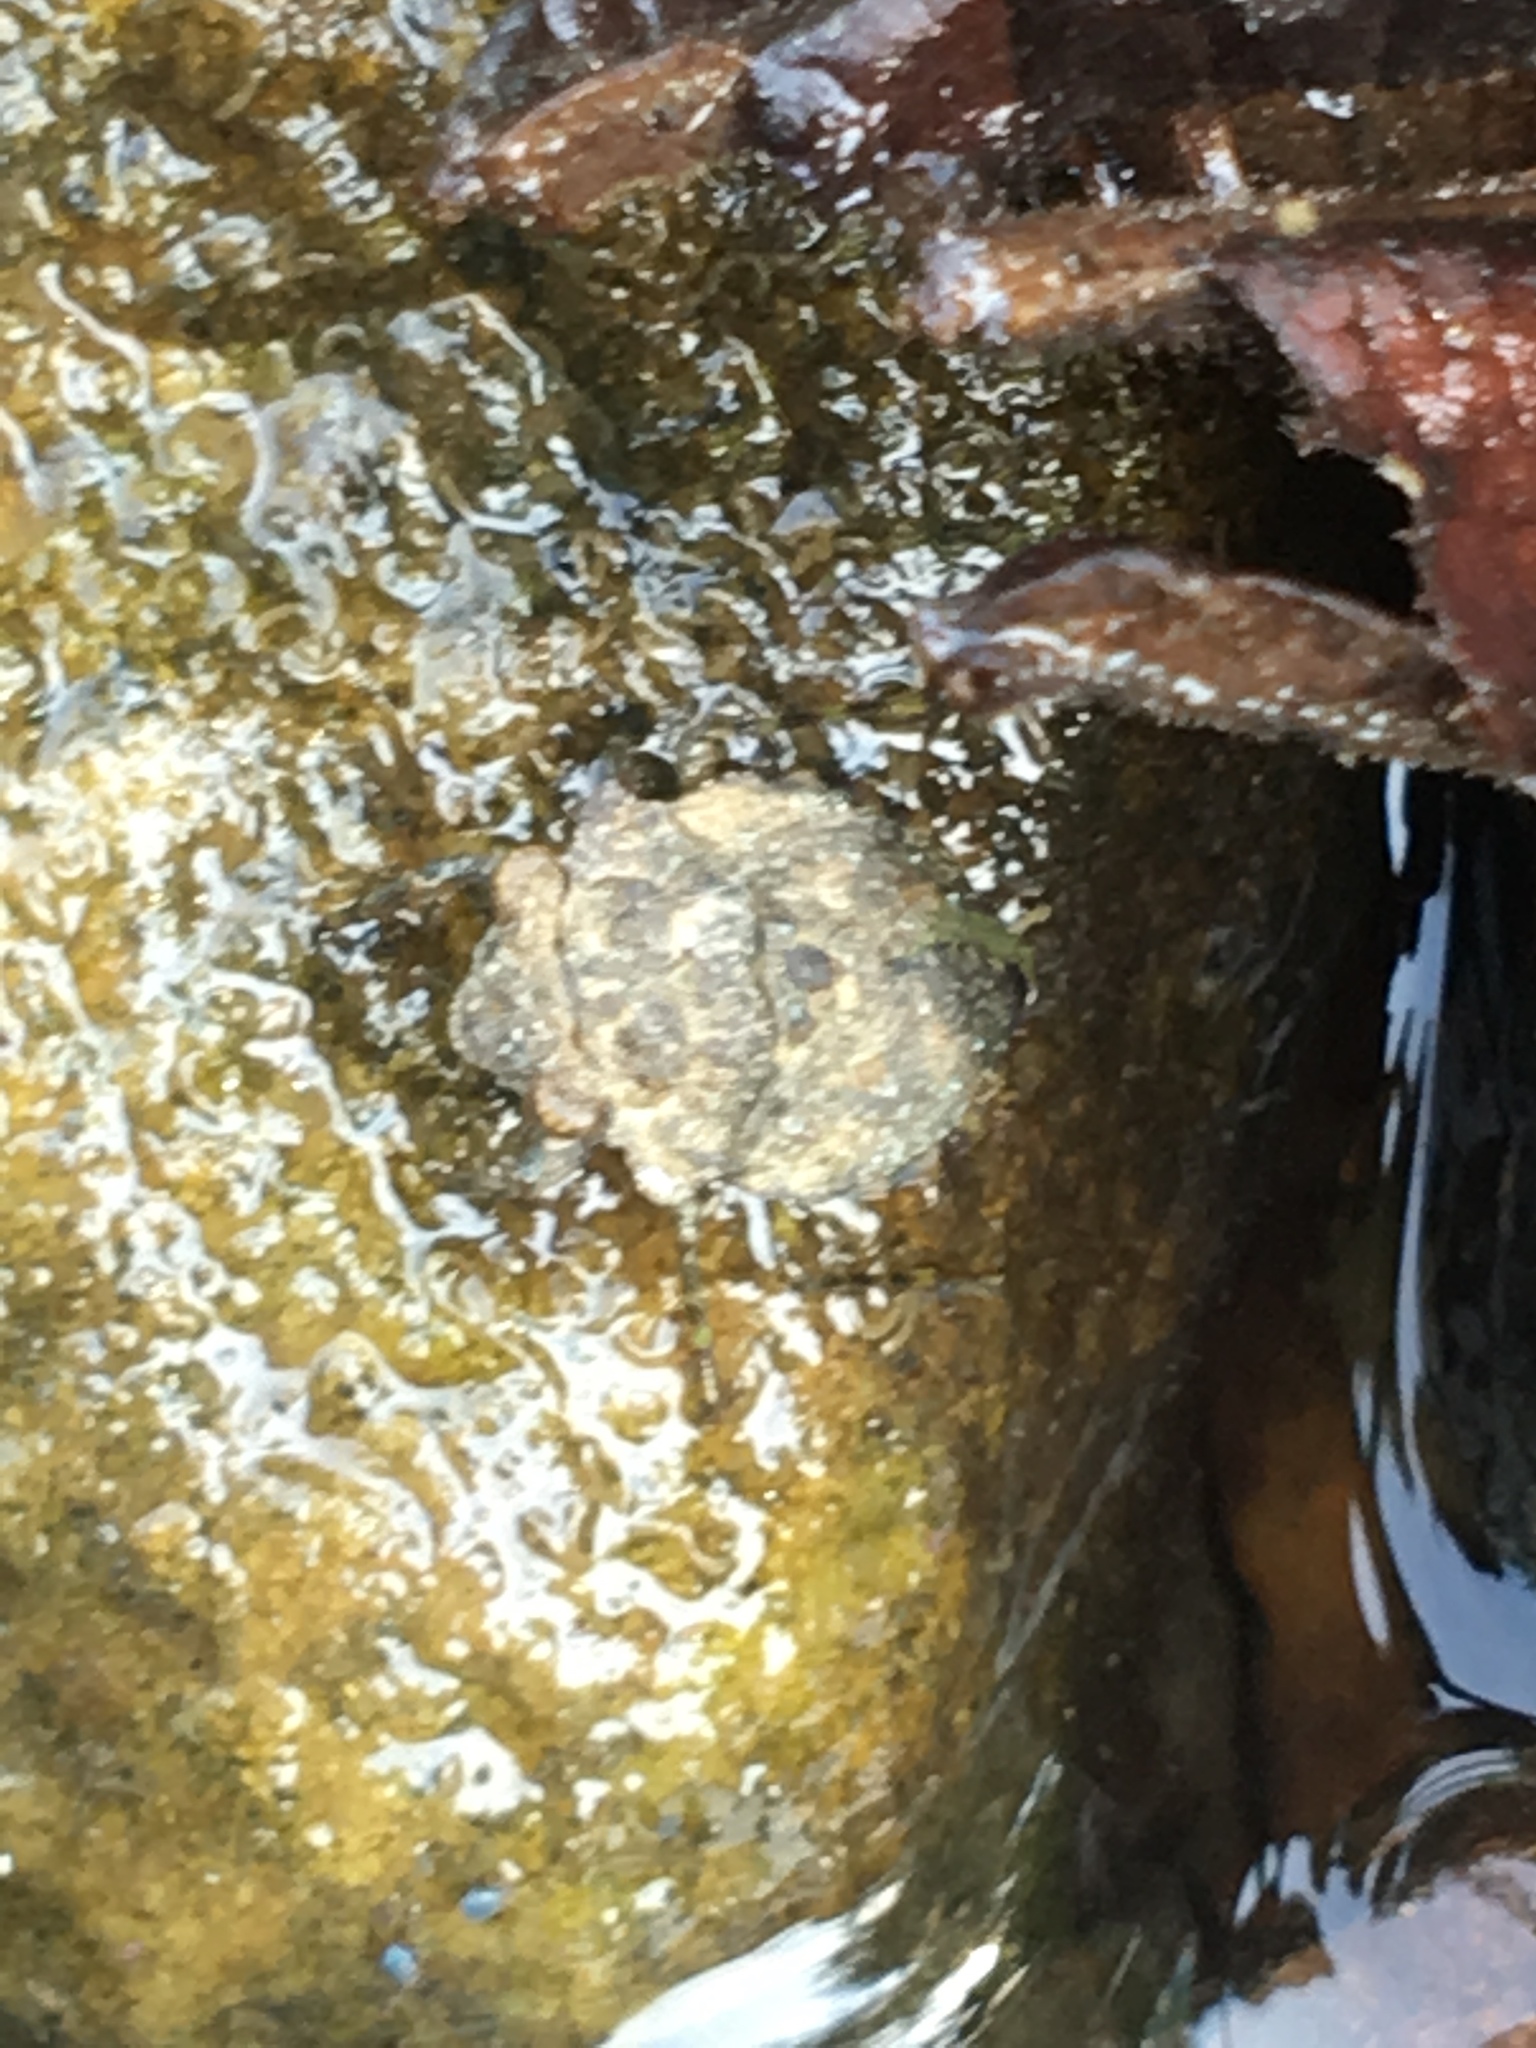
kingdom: Animalia
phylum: Arthropoda
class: Insecta
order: Hemiptera
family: Gelastocoridae
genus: Gelastocoris
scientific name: Gelastocoris oculatus
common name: Toad bug
